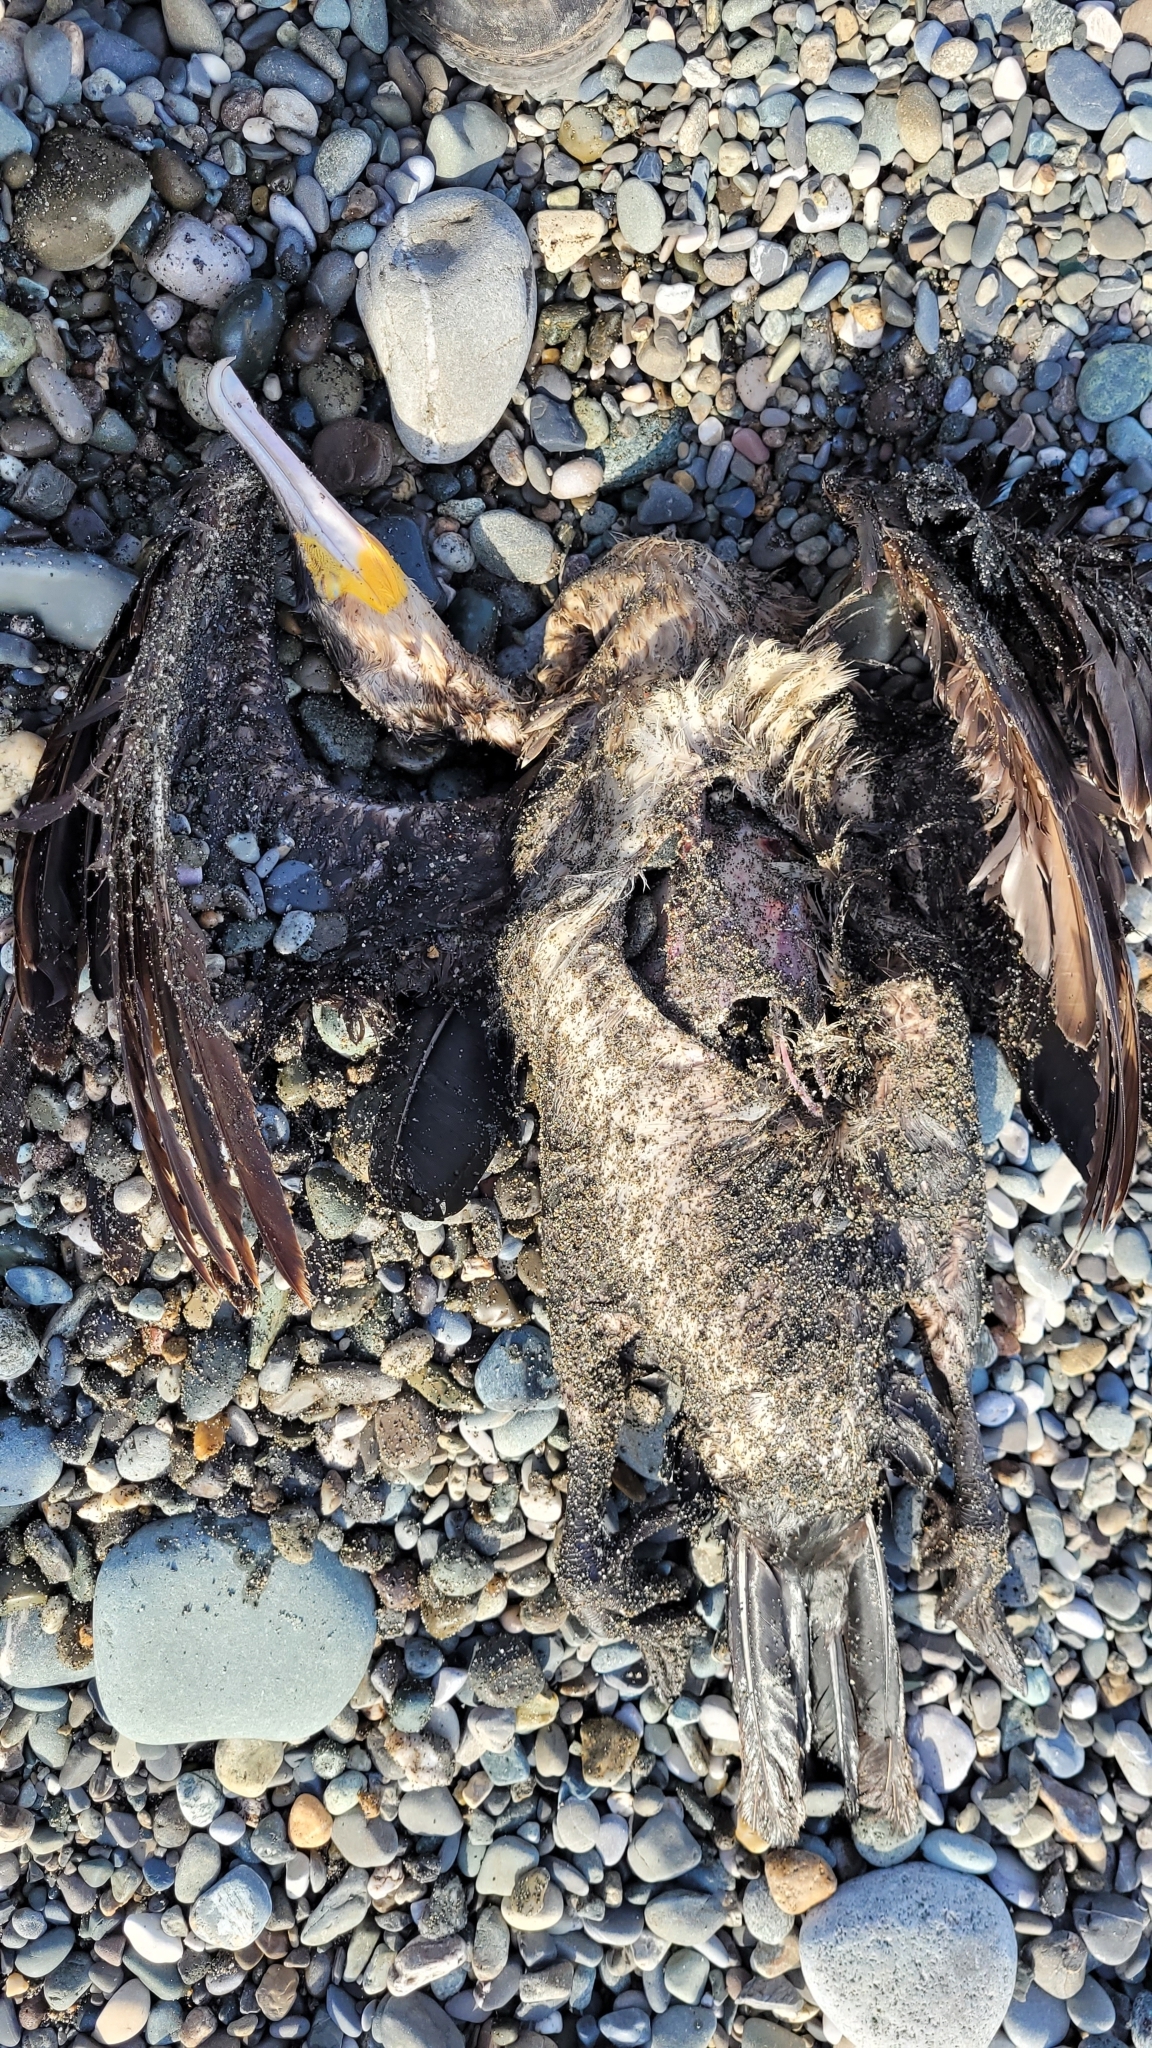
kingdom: Animalia
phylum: Chordata
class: Aves
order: Suliformes
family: Phalacrocoracidae
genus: Phalacrocorax
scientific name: Phalacrocorax carbo
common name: Great cormorant
